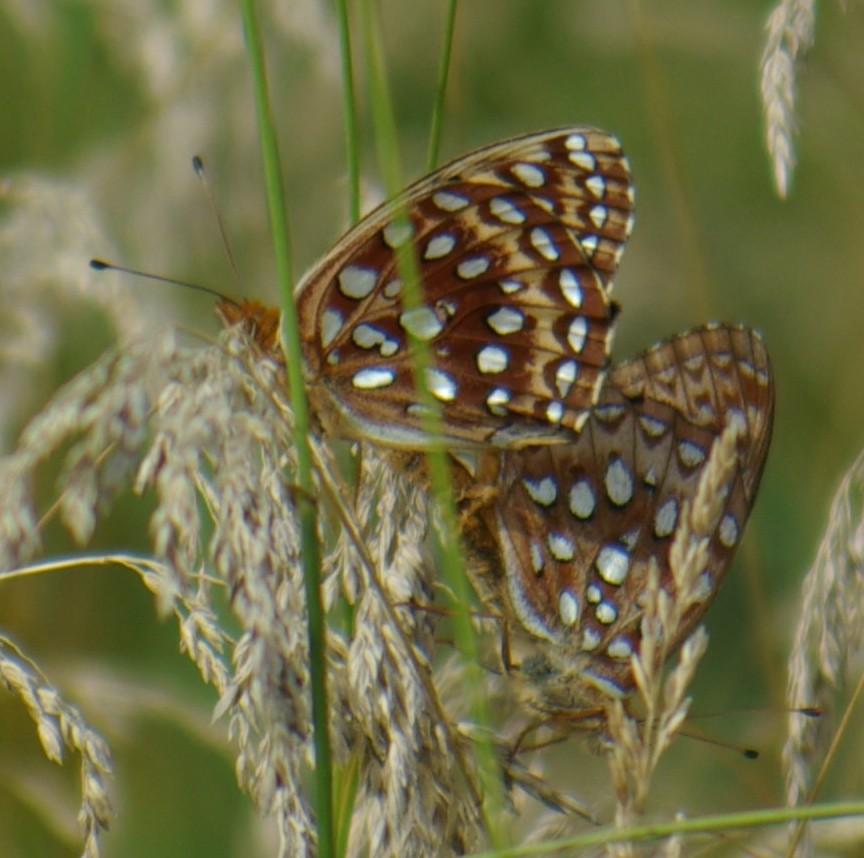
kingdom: Animalia
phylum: Arthropoda
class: Insecta
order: Lepidoptera
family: Nymphalidae
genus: Speyeria
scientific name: Speyeria aphrodite
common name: Aphrodite friitllary
